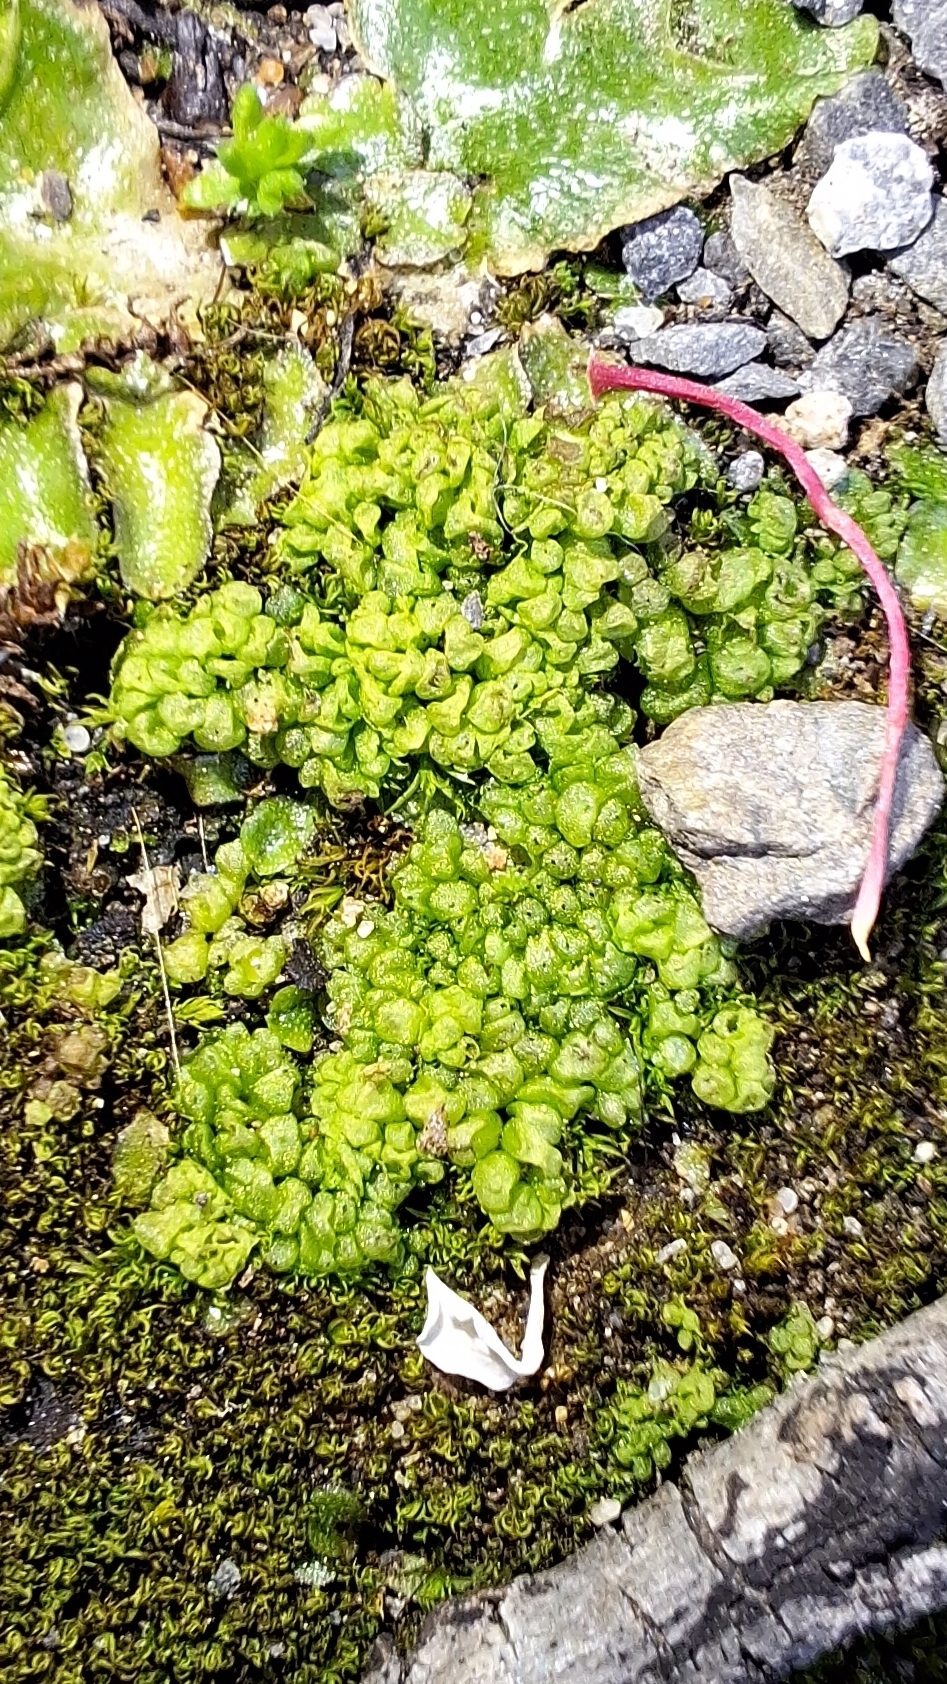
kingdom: Plantae
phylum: Marchantiophyta
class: Marchantiopsida
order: Sphaerocarpales
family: Sphaerocarpaceae
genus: Sphaerocarpos
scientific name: Sphaerocarpos texanus
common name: Texas balloonwort
